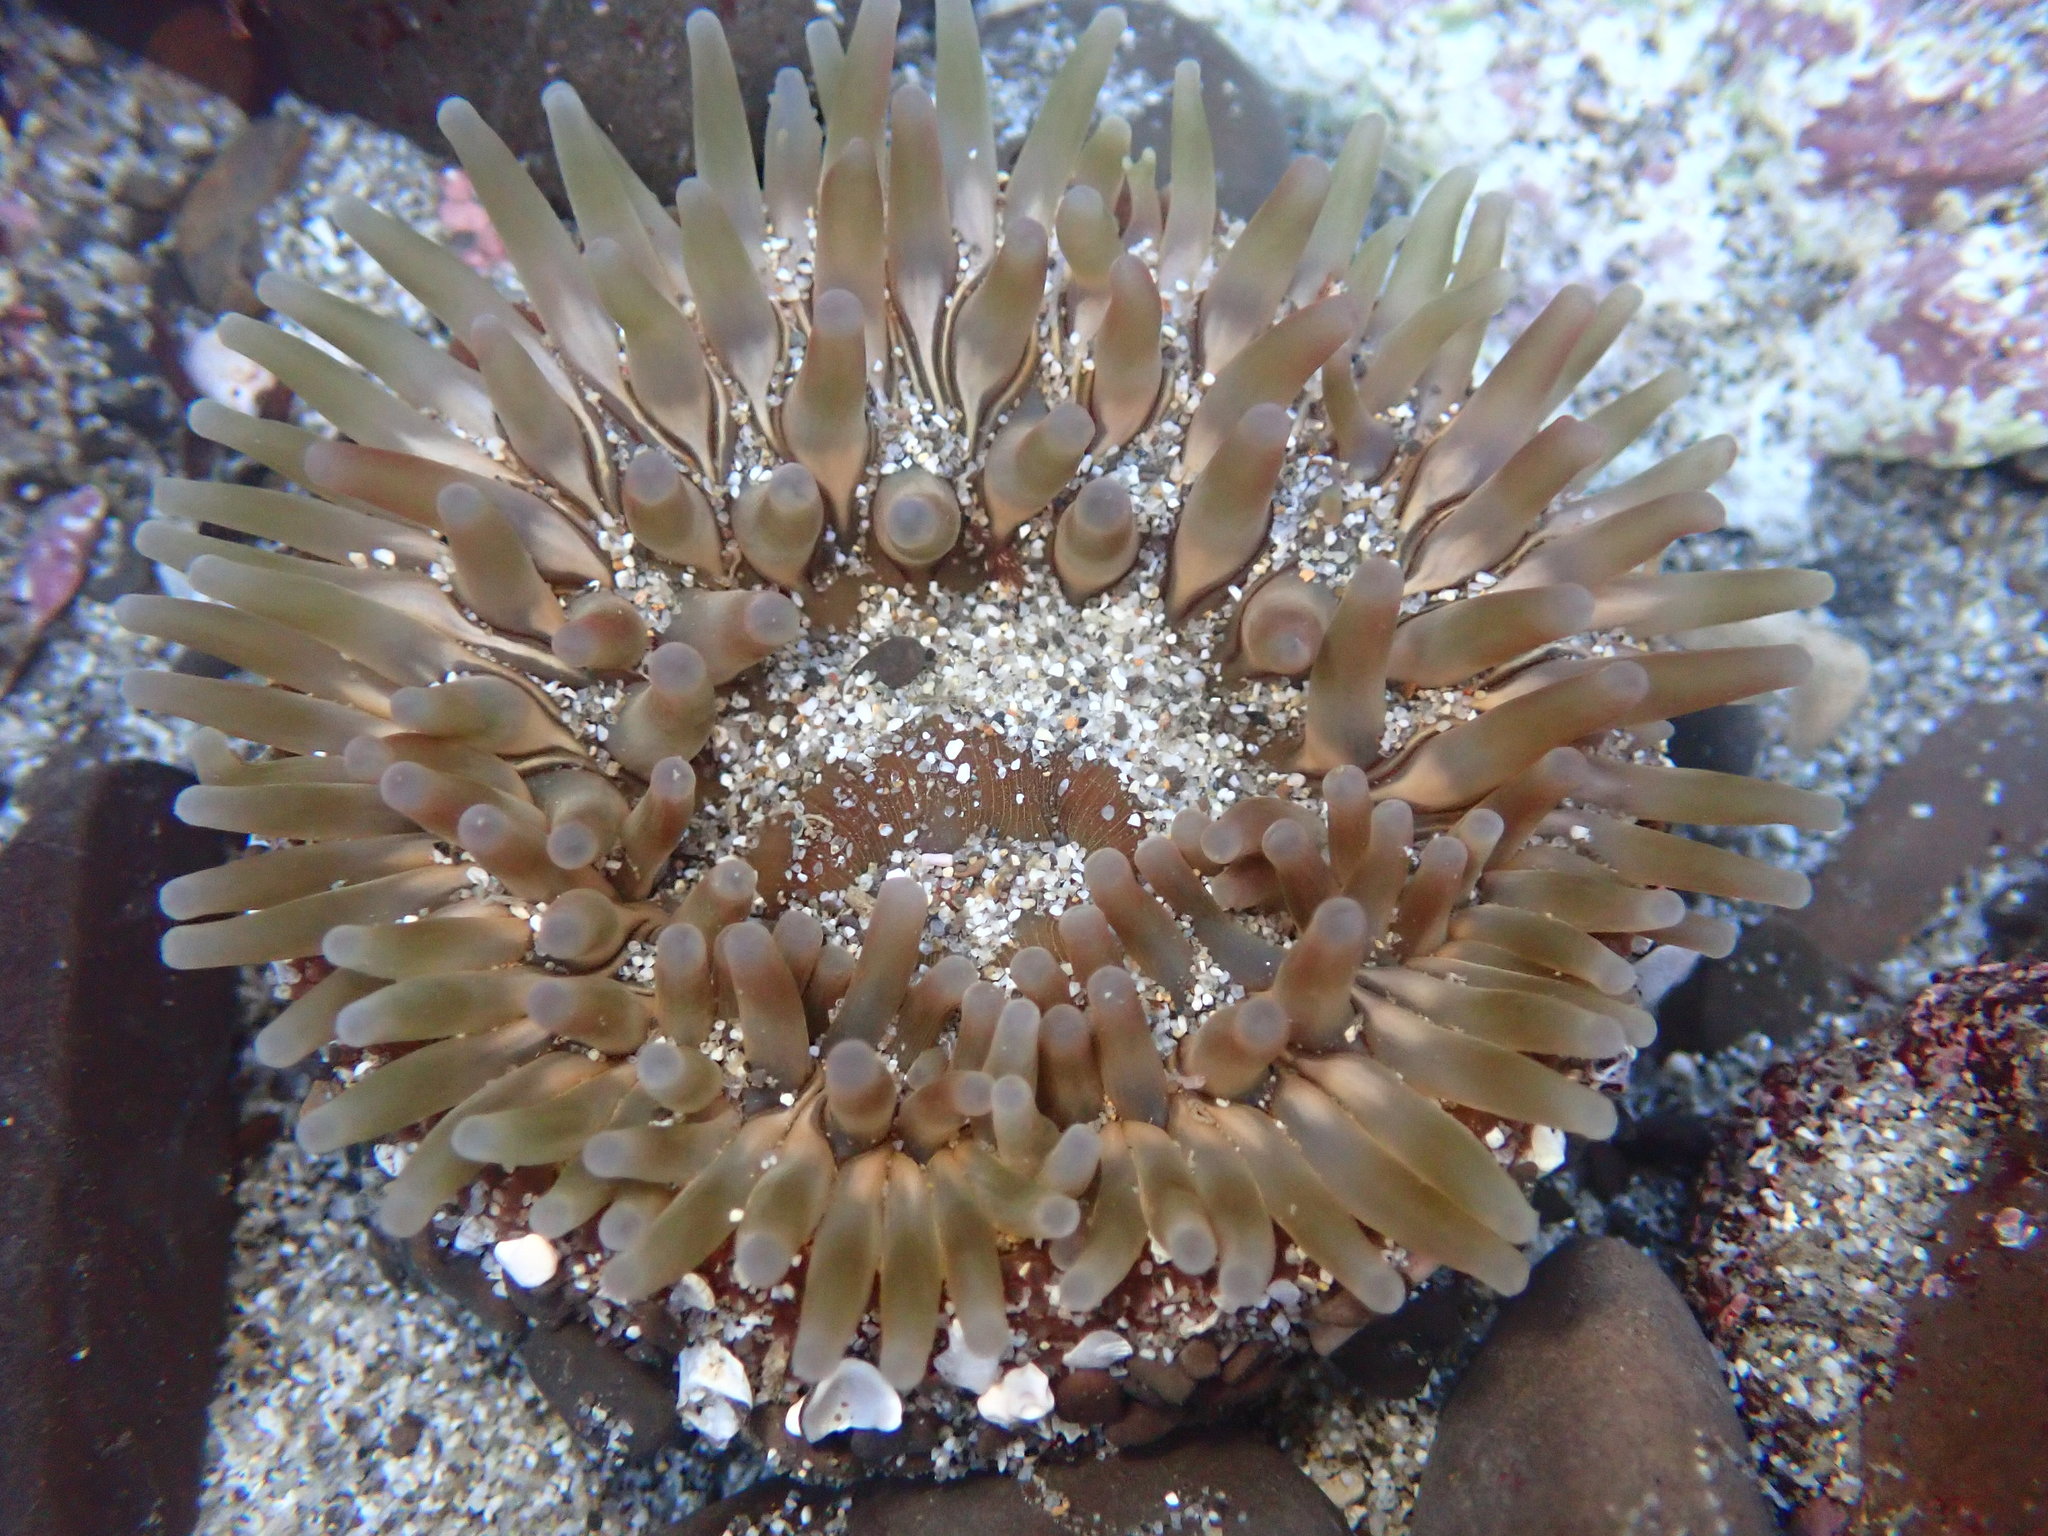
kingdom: Animalia
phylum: Cnidaria
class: Anthozoa
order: Actiniaria
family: Actiniidae
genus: Urticina
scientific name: Urticina clandestina
